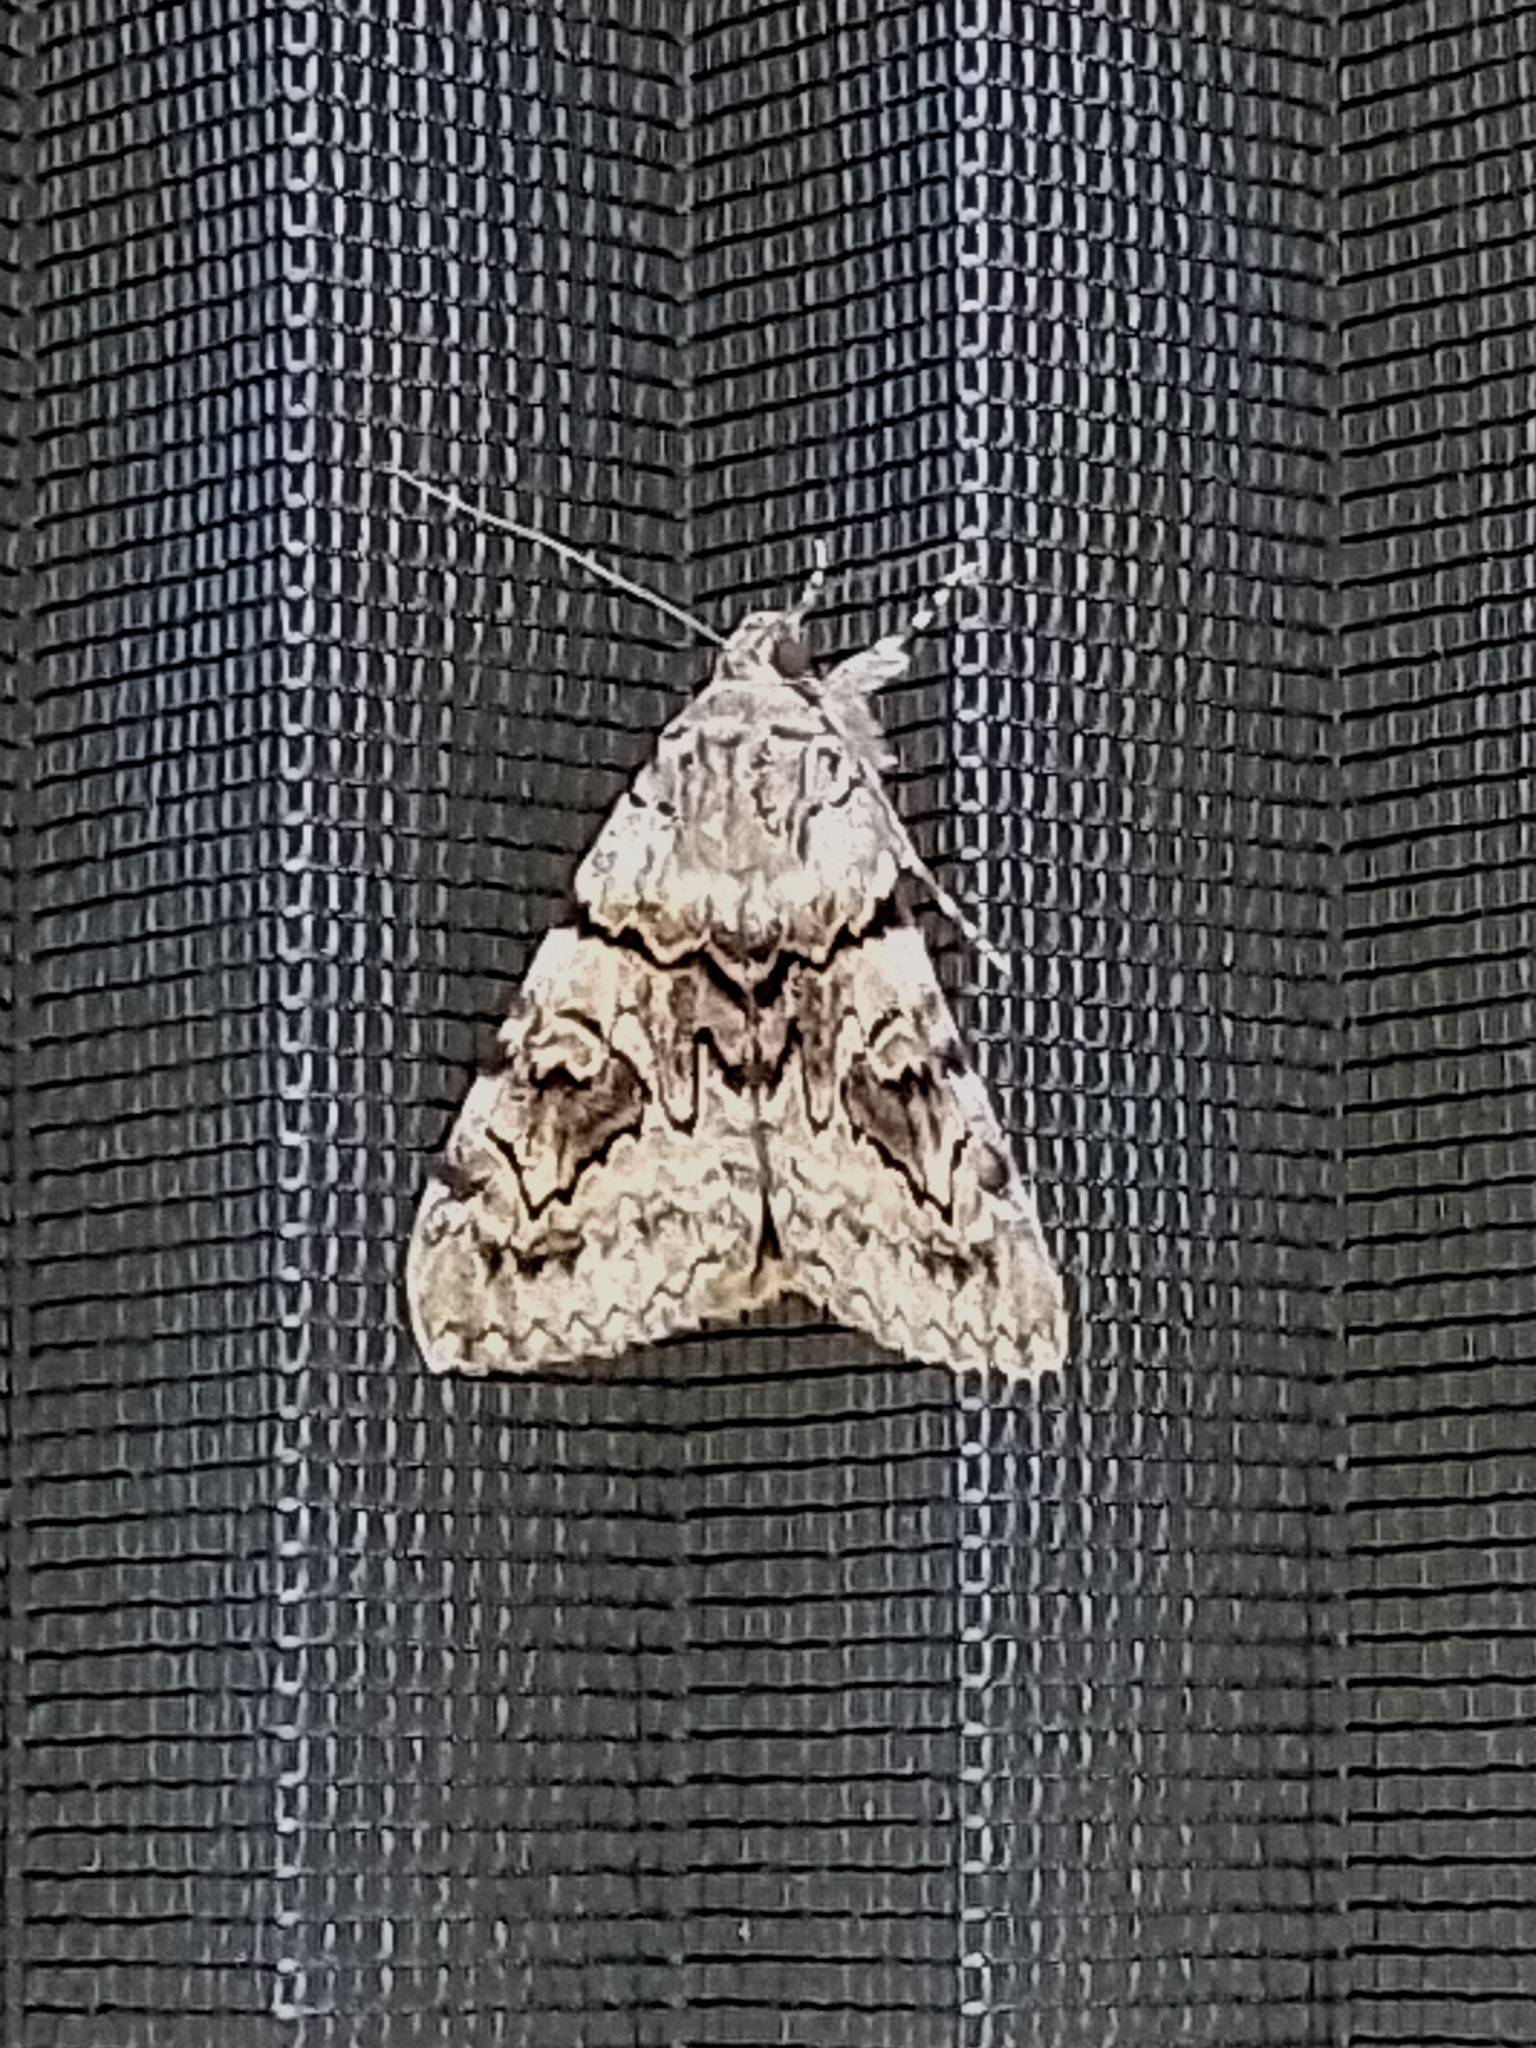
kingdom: Animalia
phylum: Arthropoda
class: Insecta
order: Lepidoptera
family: Erebidae
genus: Catocala
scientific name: Catocala nymphagoga
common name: Oak yellow underwing
